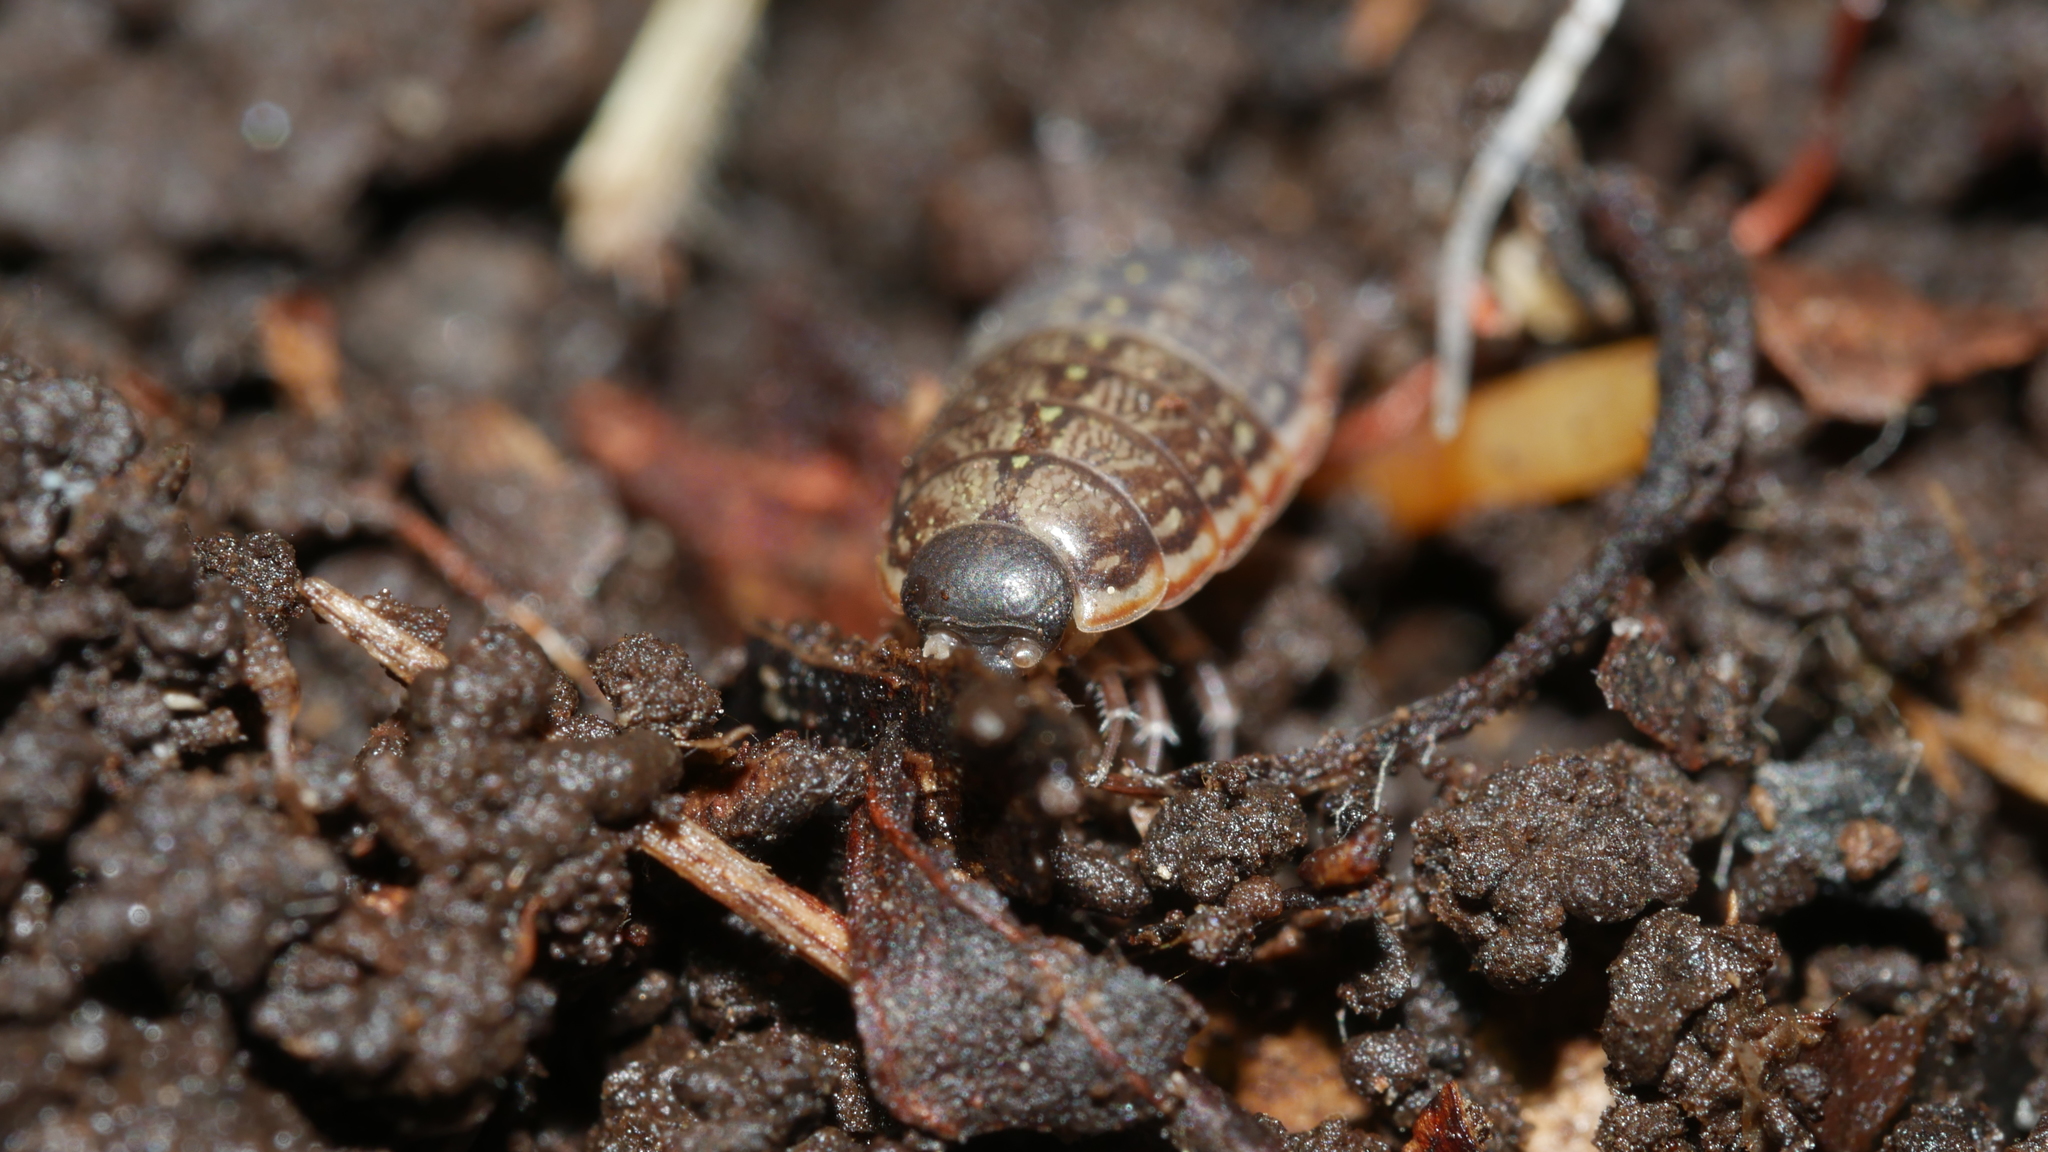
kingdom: Animalia
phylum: Arthropoda
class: Malacostraca
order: Isopoda
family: Philosciidae
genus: Philoscia
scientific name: Philoscia muscorum
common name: Common striped woodlouse
